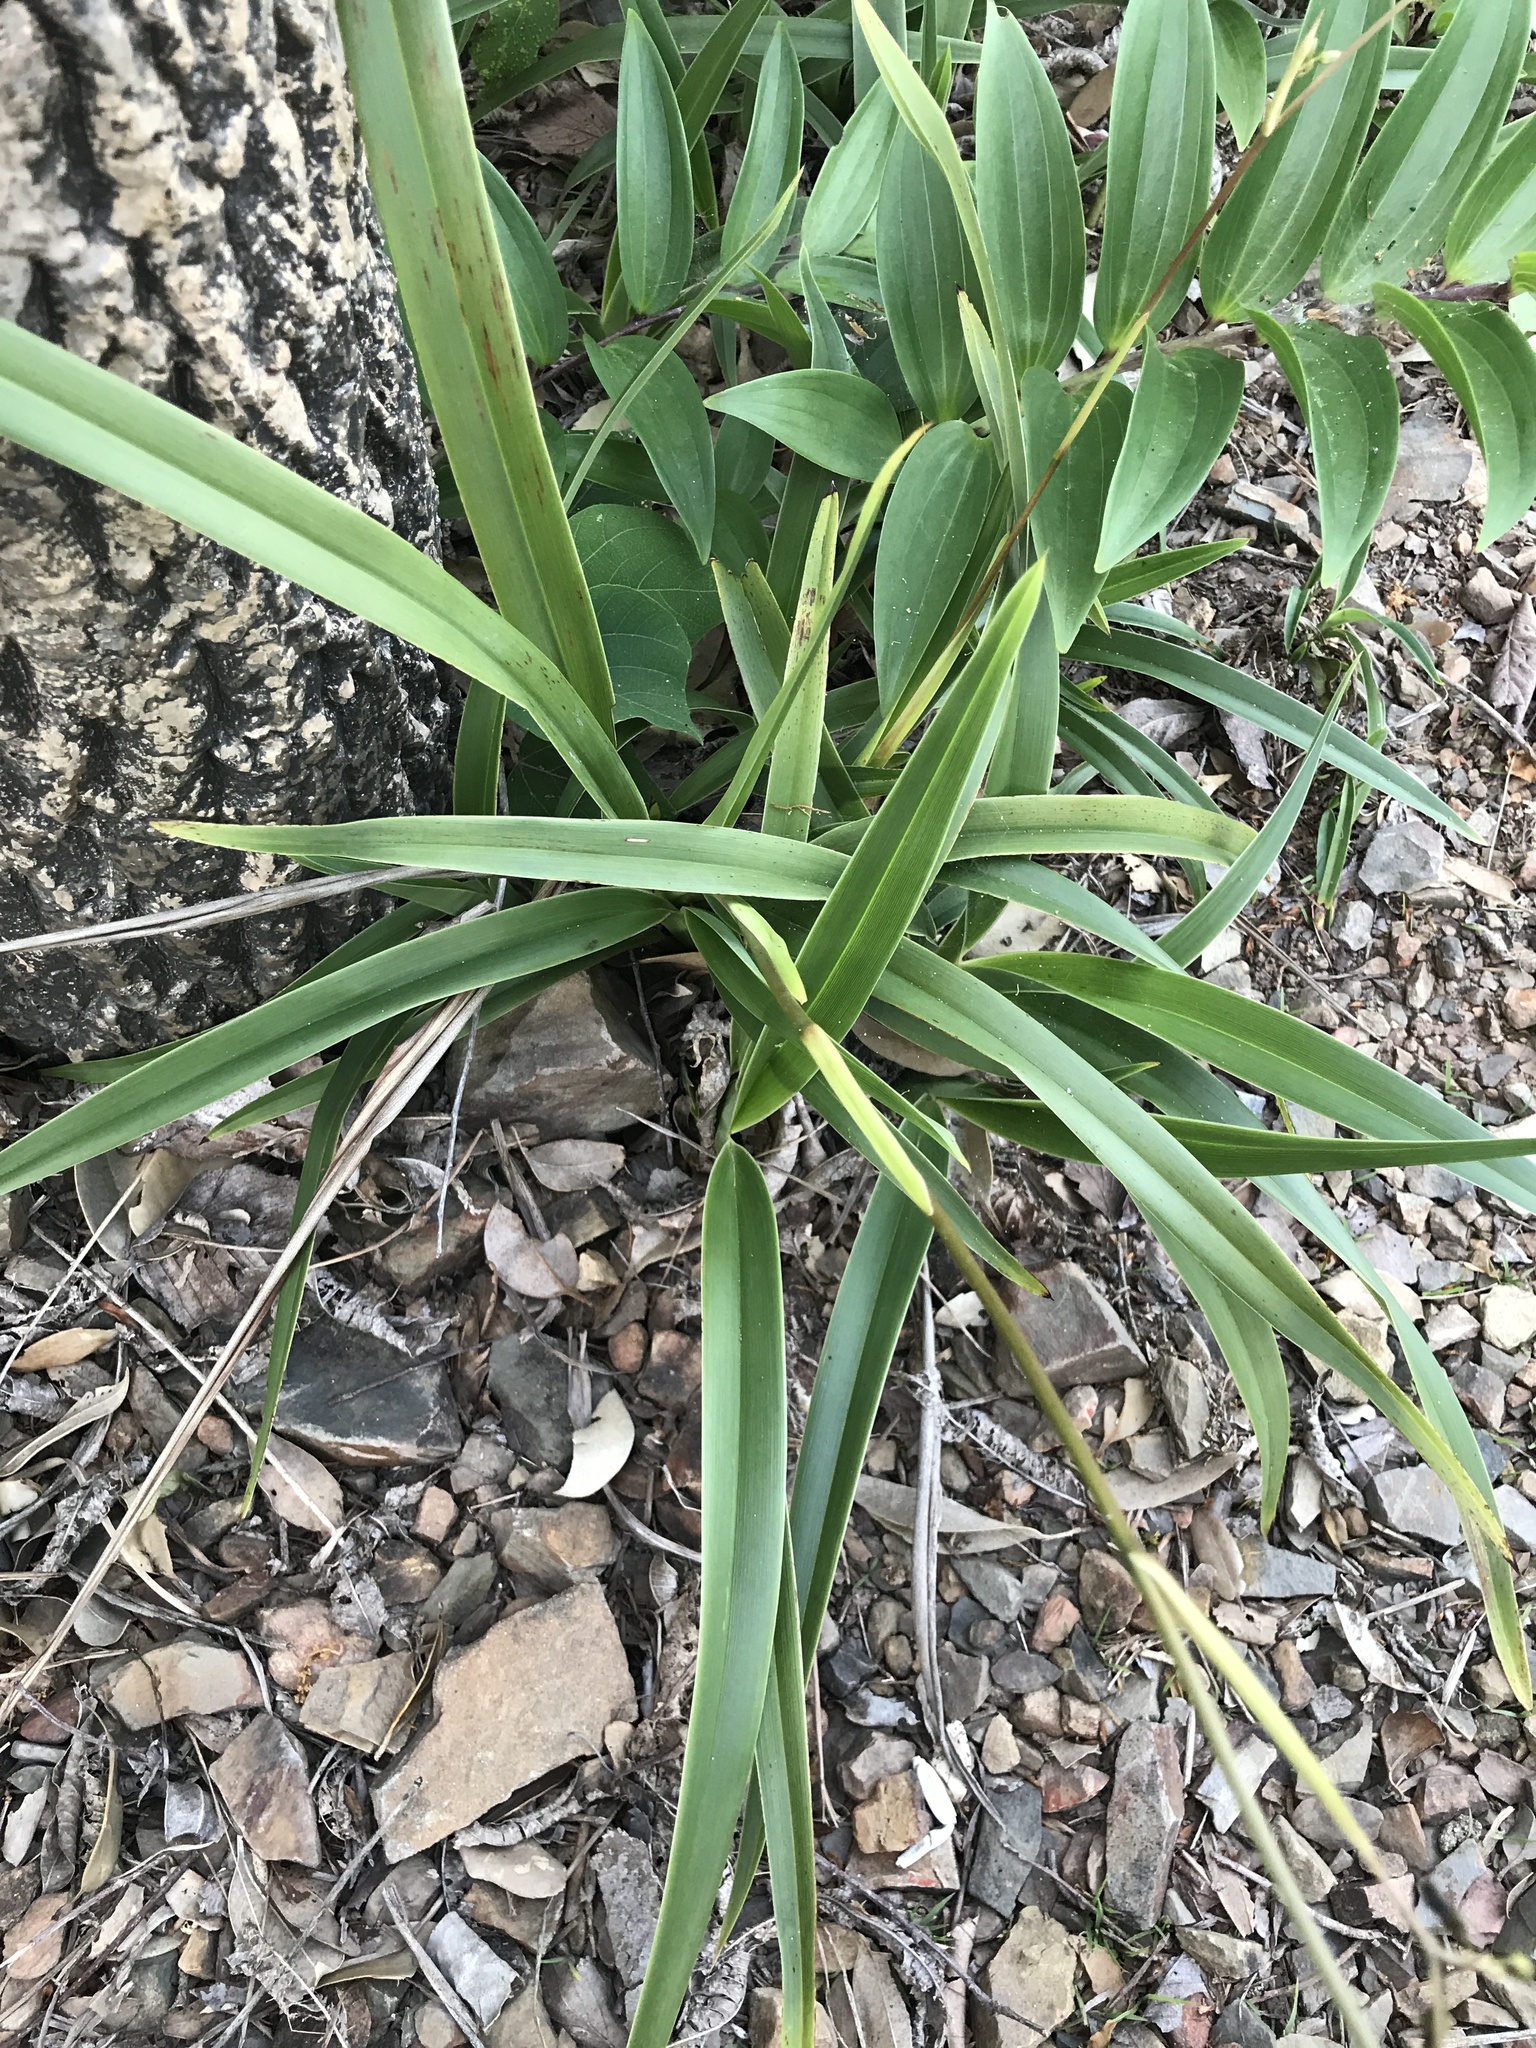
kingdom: Plantae
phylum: Tracheophyta
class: Liliopsida
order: Asparagales
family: Asphodelaceae
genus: Dianella
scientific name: Dianella ensifolia
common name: New zealand lilyplant
